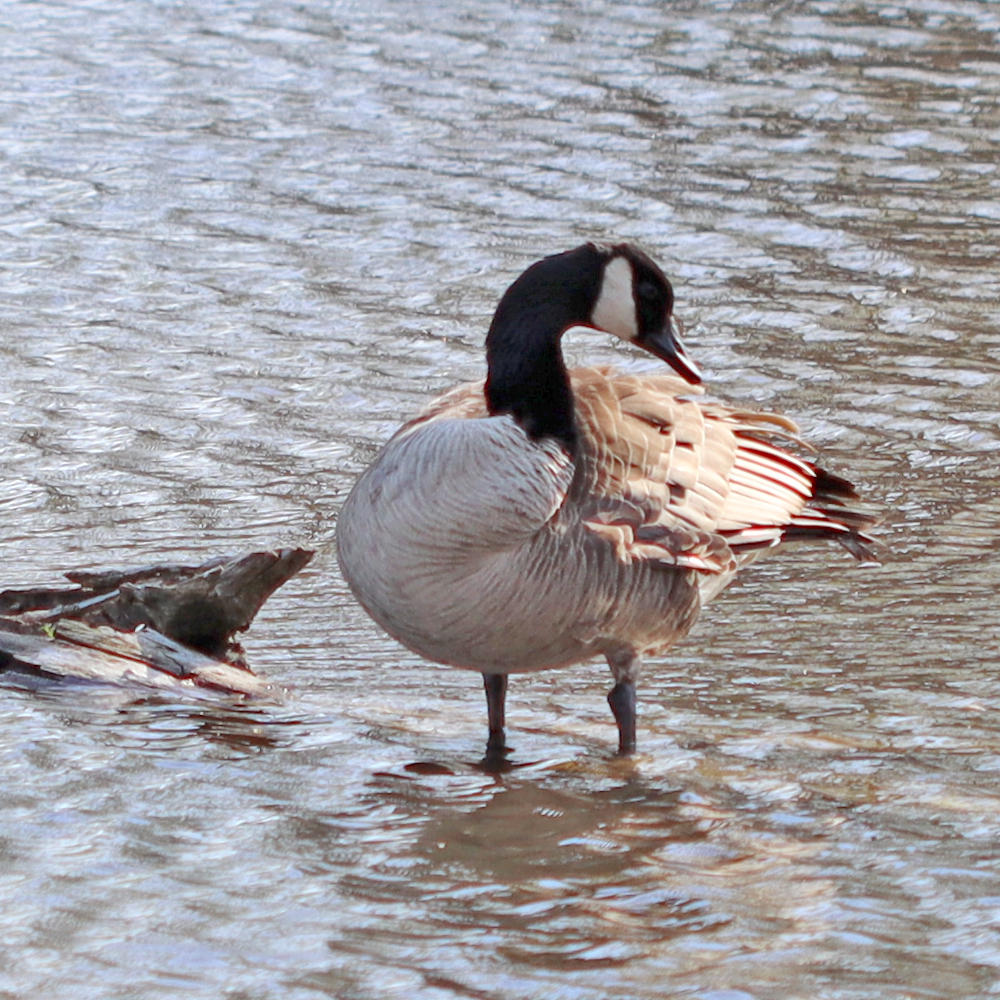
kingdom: Animalia
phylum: Chordata
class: Aves
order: Anseriformes
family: Anatidae
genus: Branta
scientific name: Branta canadensis
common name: Canada goose
